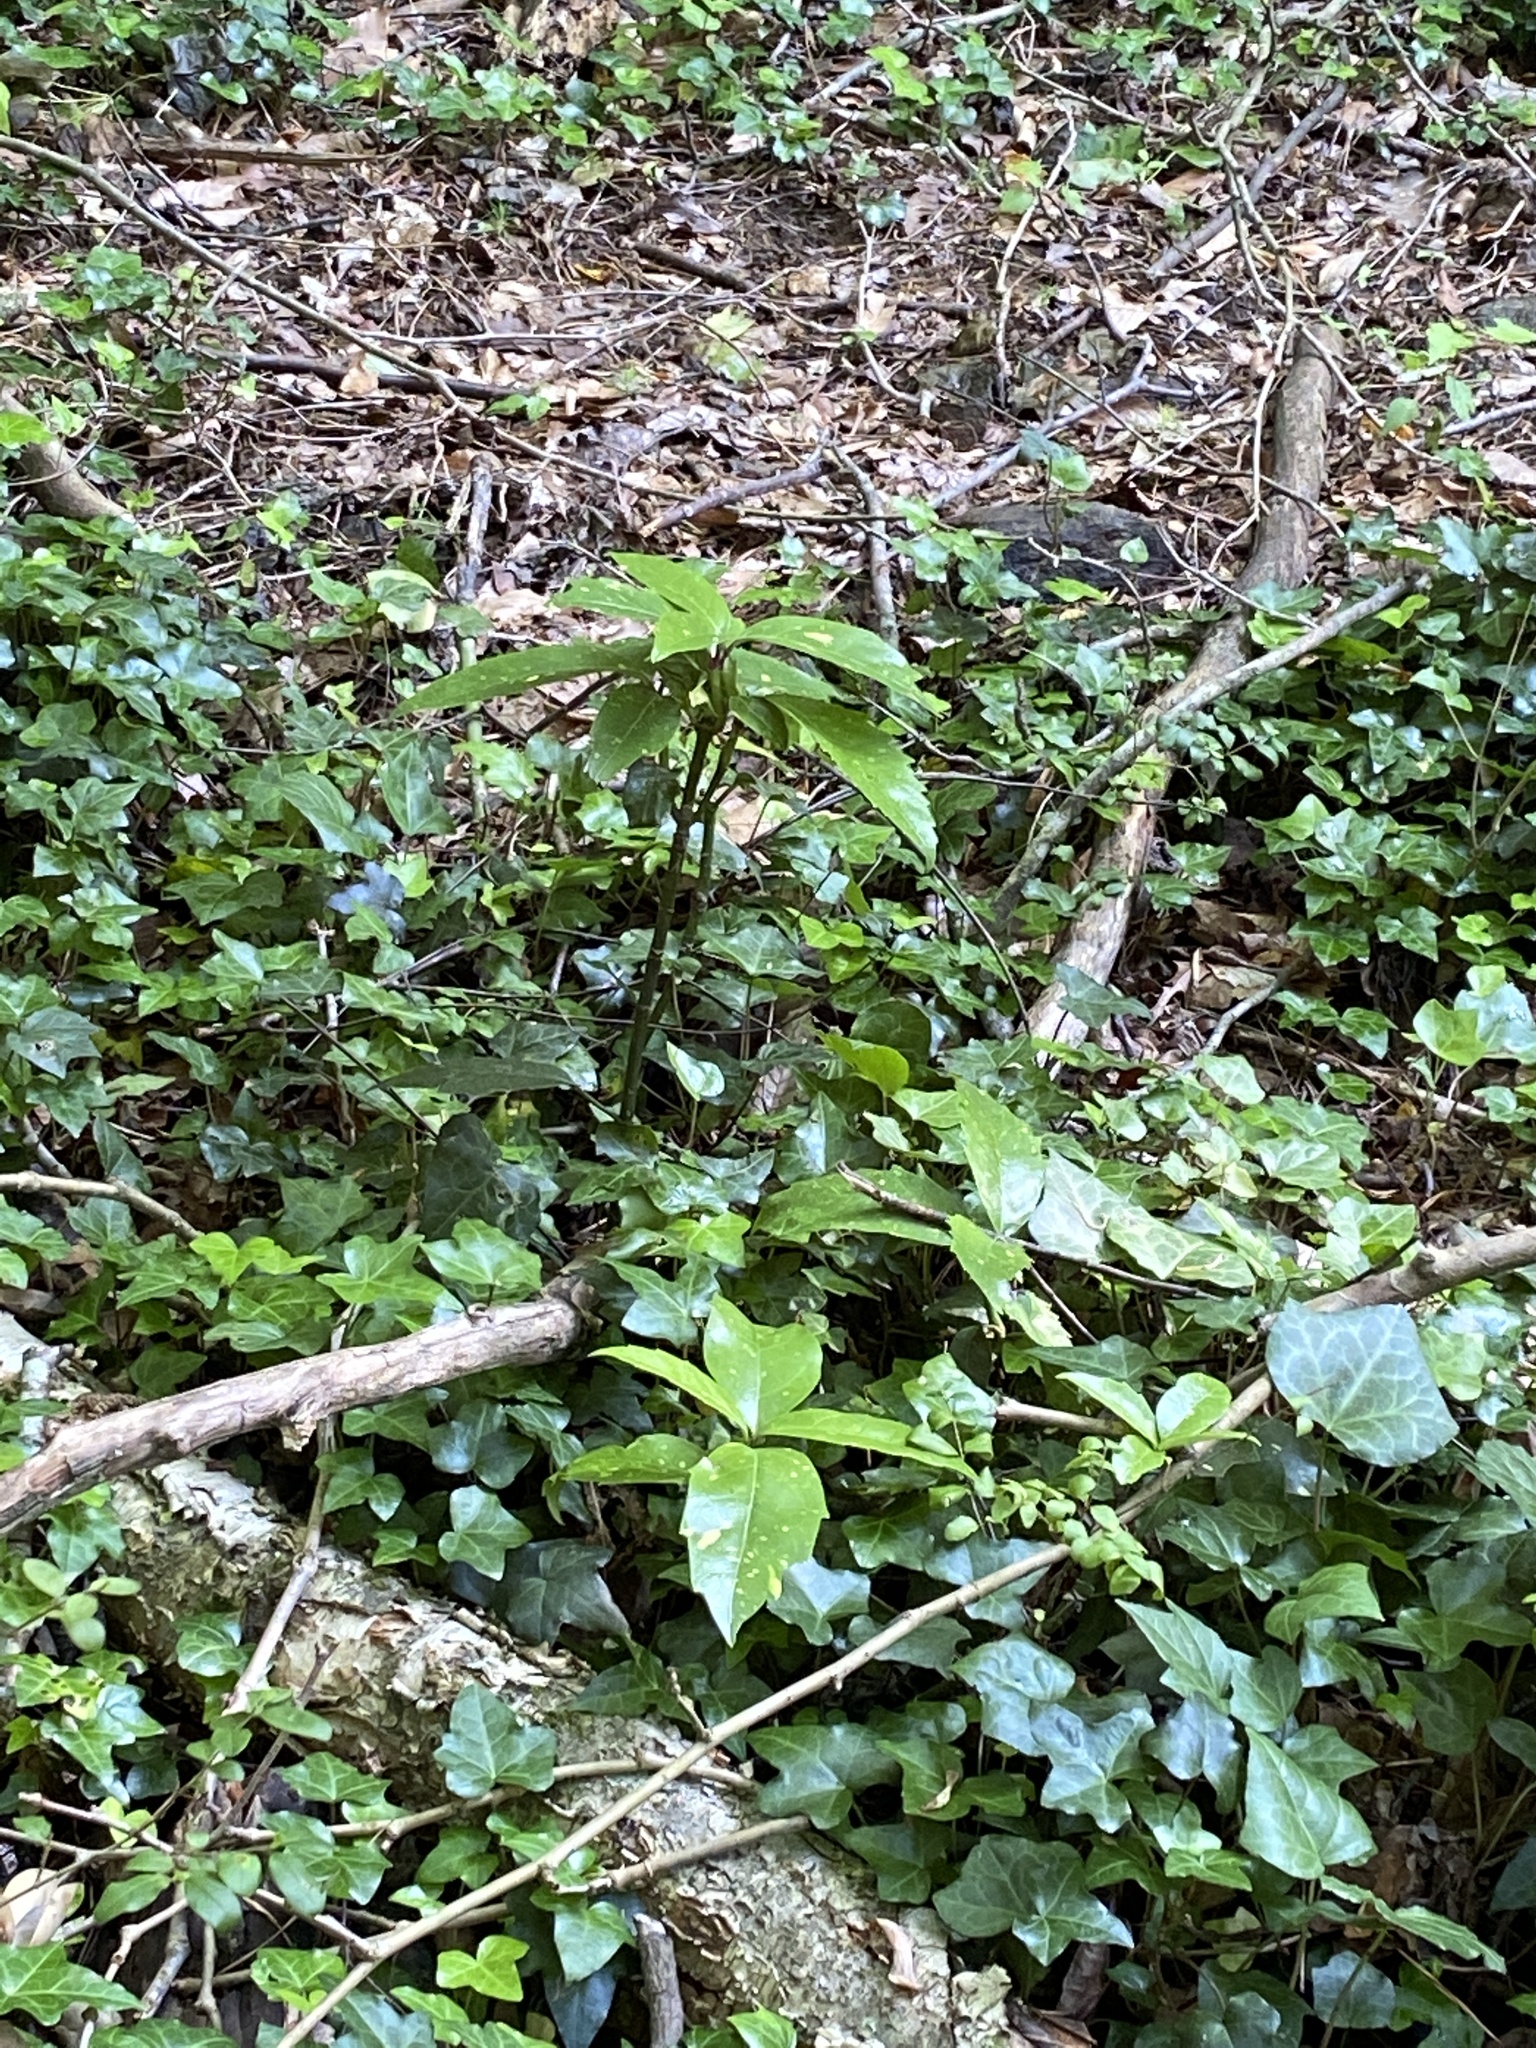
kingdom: Plantae
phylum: Tracheophyta
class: Magnoliopsida
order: Garryales
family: Garryaceae
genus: Aucuba
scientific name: Aucuba japonica
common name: Spotted-laurel
